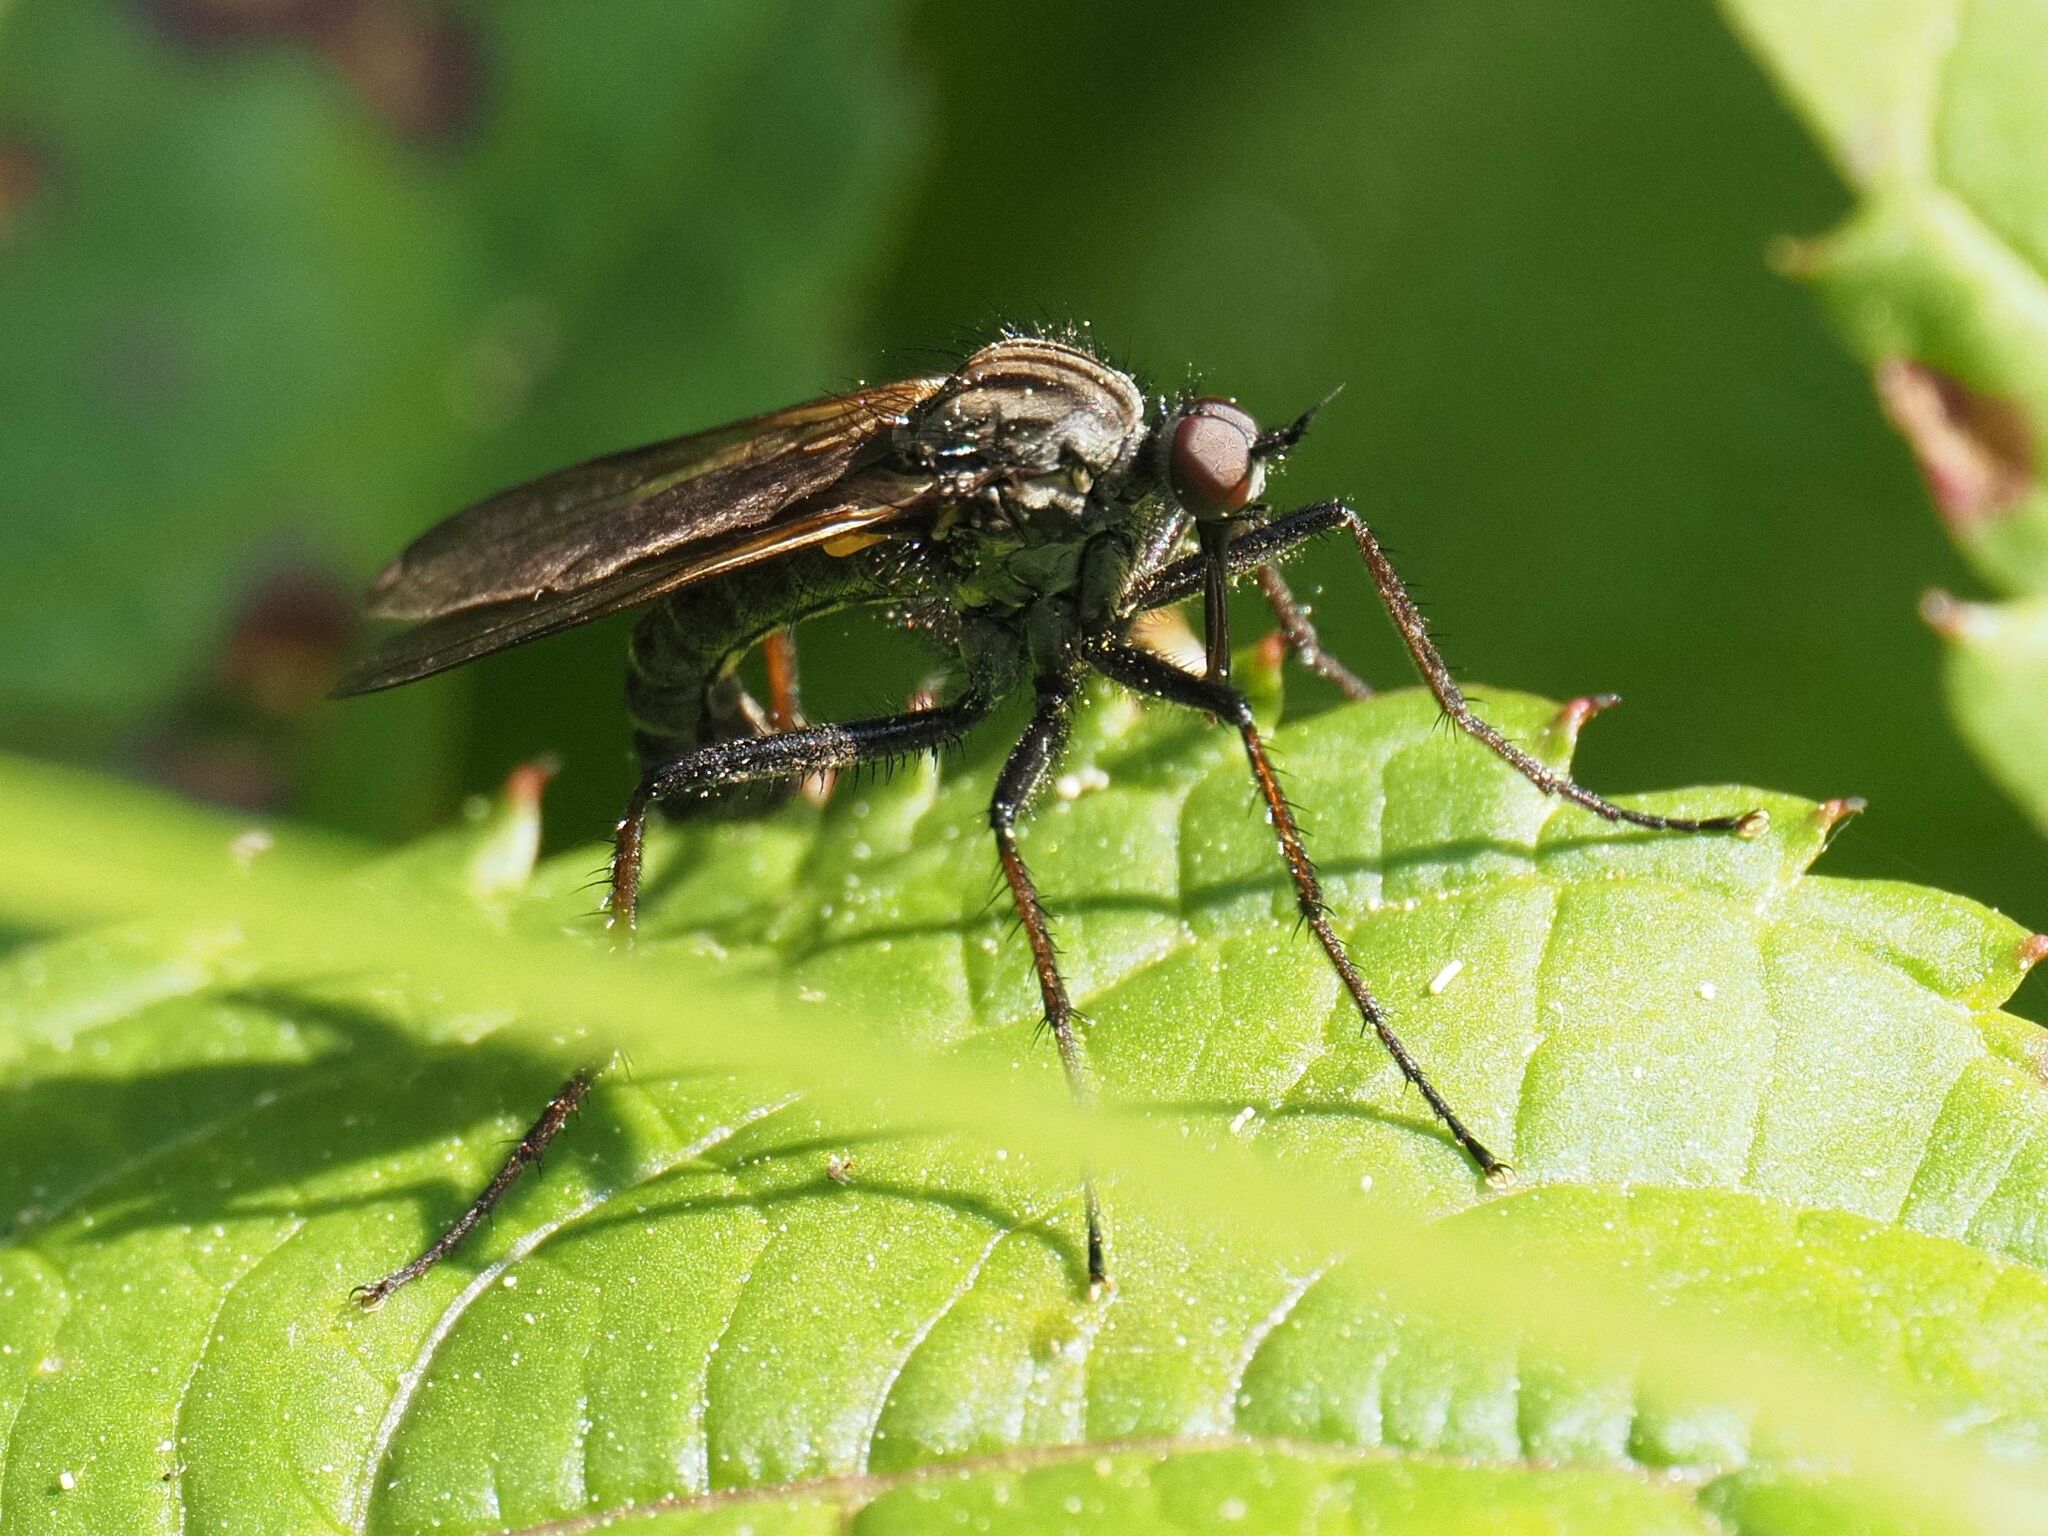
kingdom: Animalia
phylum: Arthropoda
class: Insecta
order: Diptera
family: Empididae
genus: Empis
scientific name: Empis tessellata
